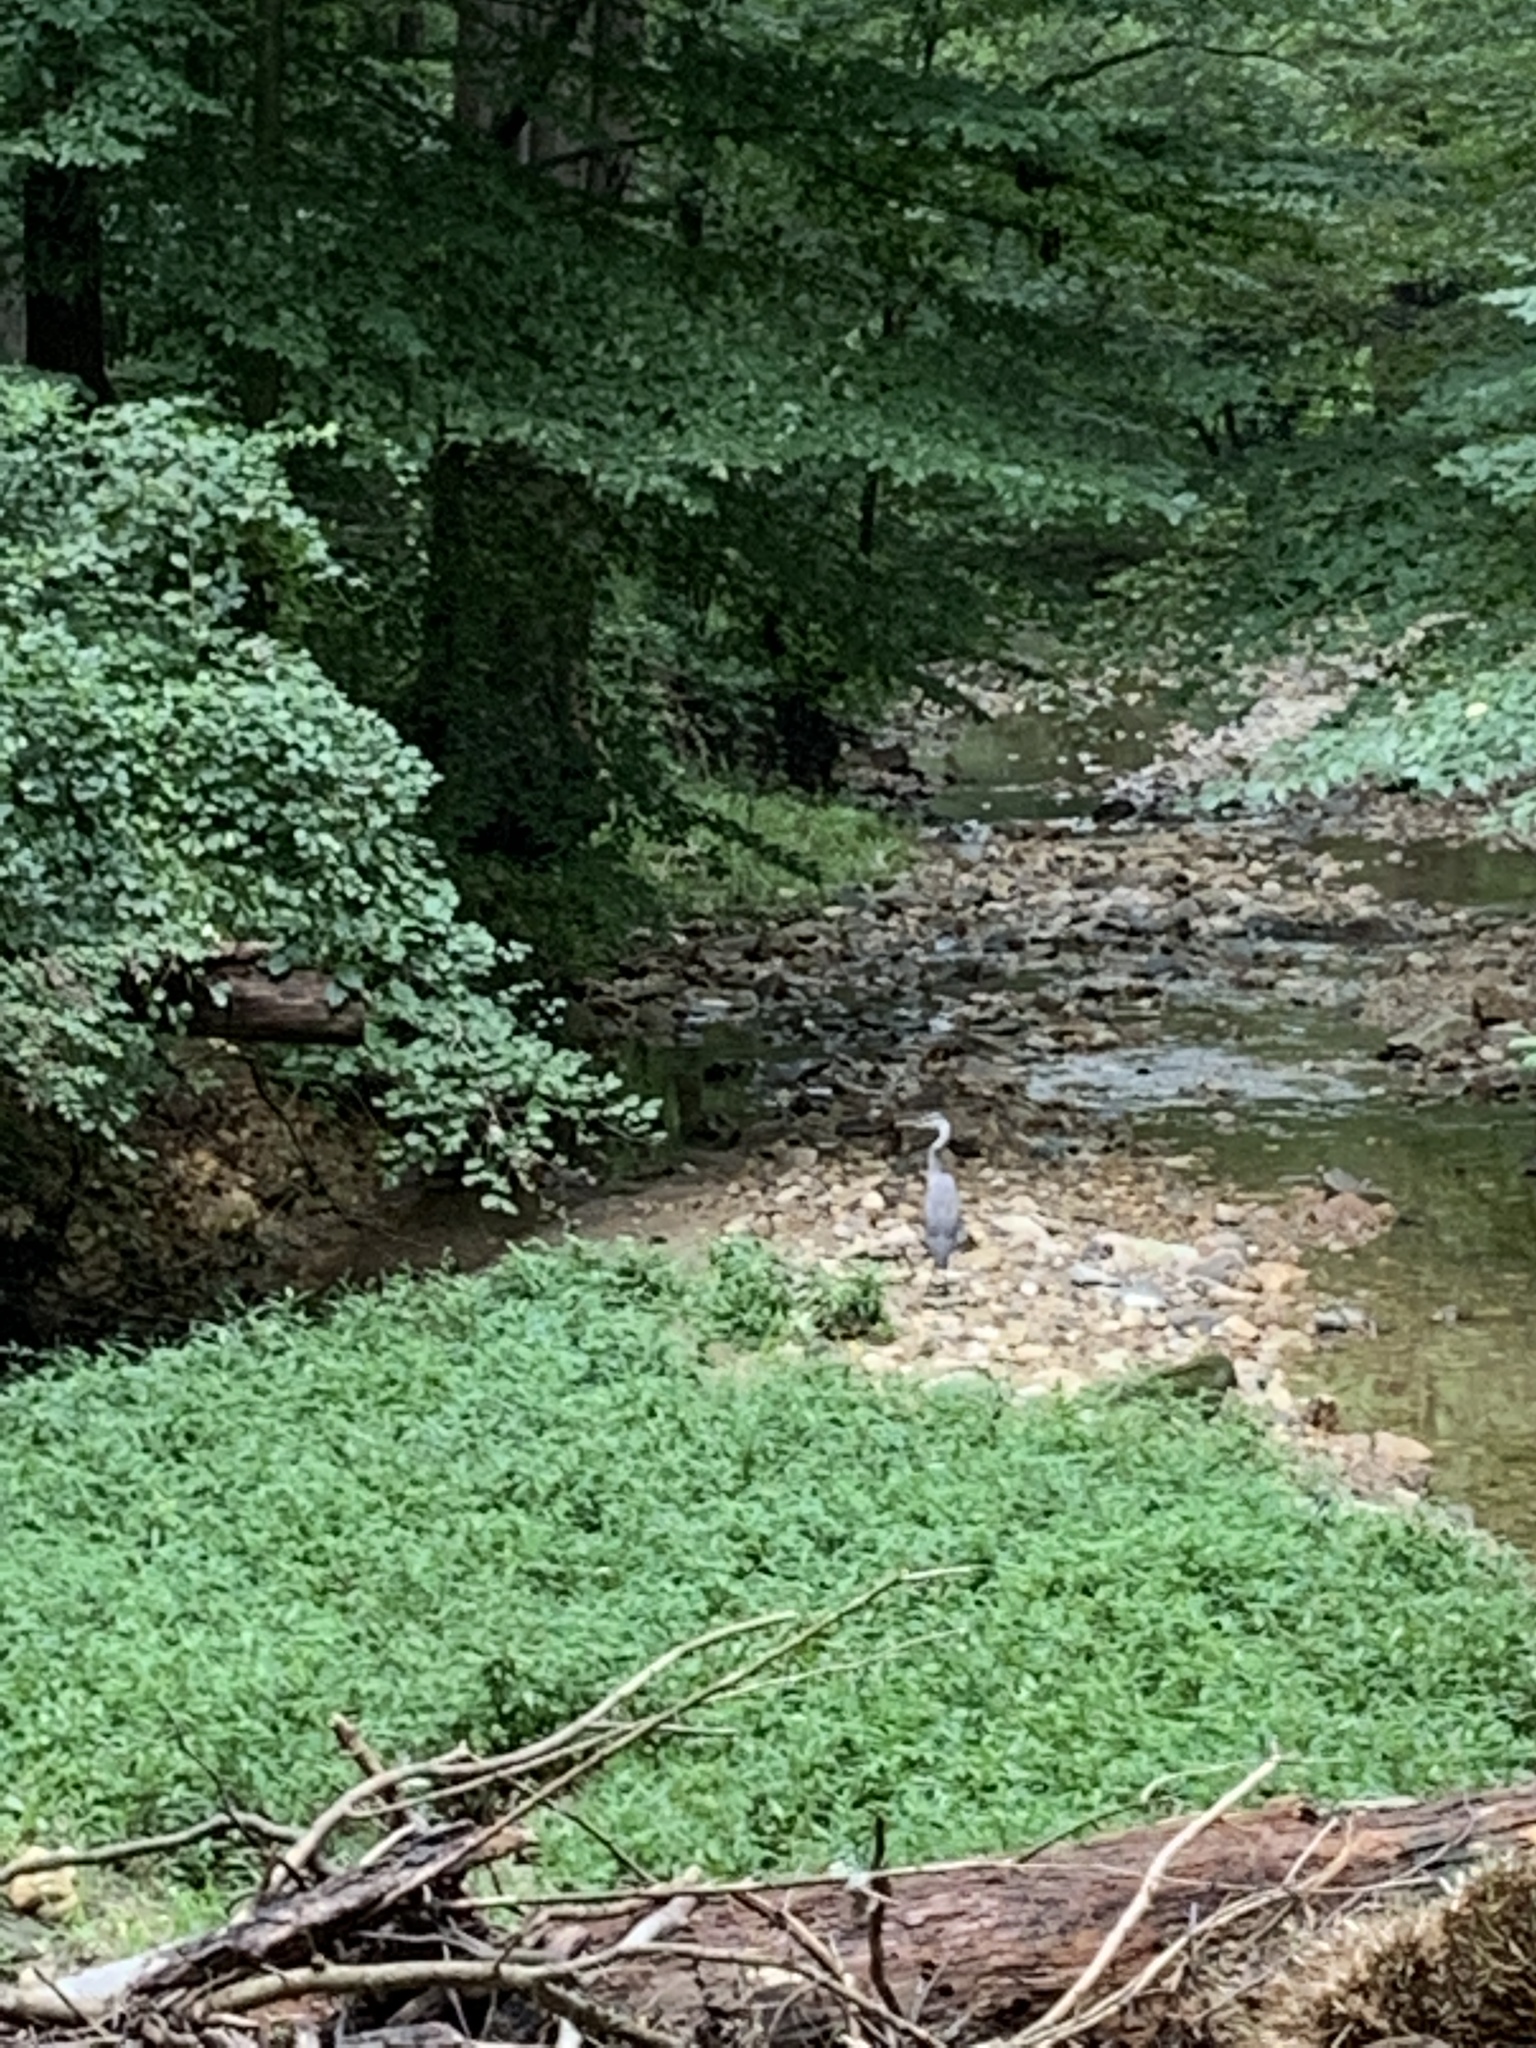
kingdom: Animalia
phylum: Chordata
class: Aves
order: Pelecaniformes
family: Ardeidae
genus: Ardea
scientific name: Ardea herodias
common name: Great blue heron
